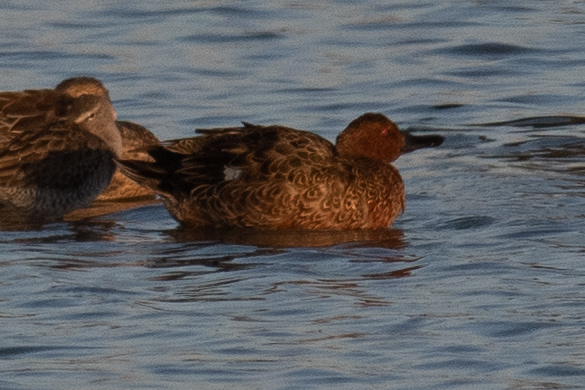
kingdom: Animalia
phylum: Chordata
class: Aves
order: Anseriformes
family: Anatidae
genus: Spatula
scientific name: Spatula cyanoptera
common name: Cinnamon teal
